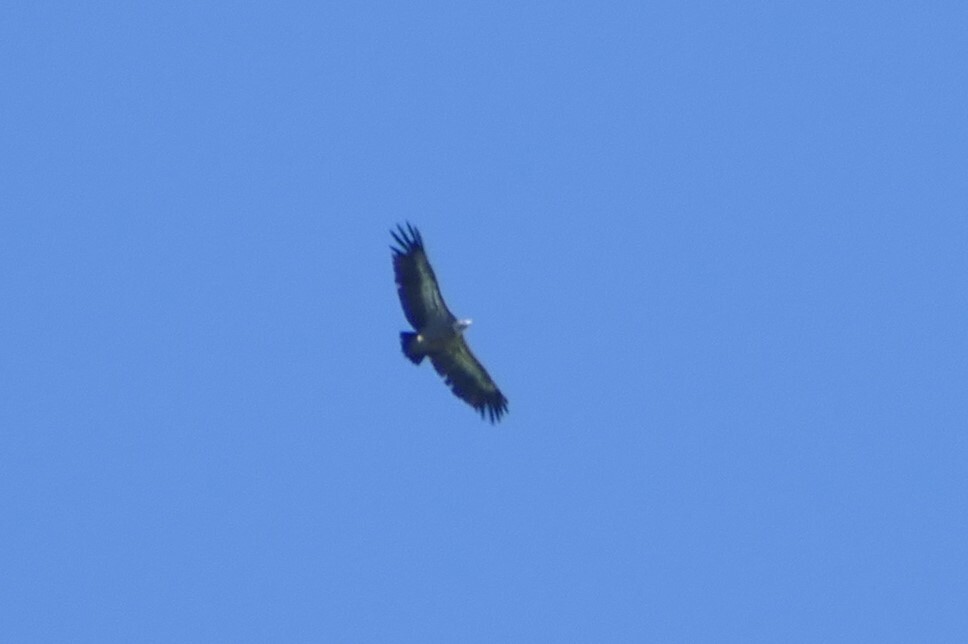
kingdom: Animalia
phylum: Chordata
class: Aves
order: Accipitriformes
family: Accipitridae
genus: Gyps
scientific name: Gyps fulvus
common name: Griffon vulture
